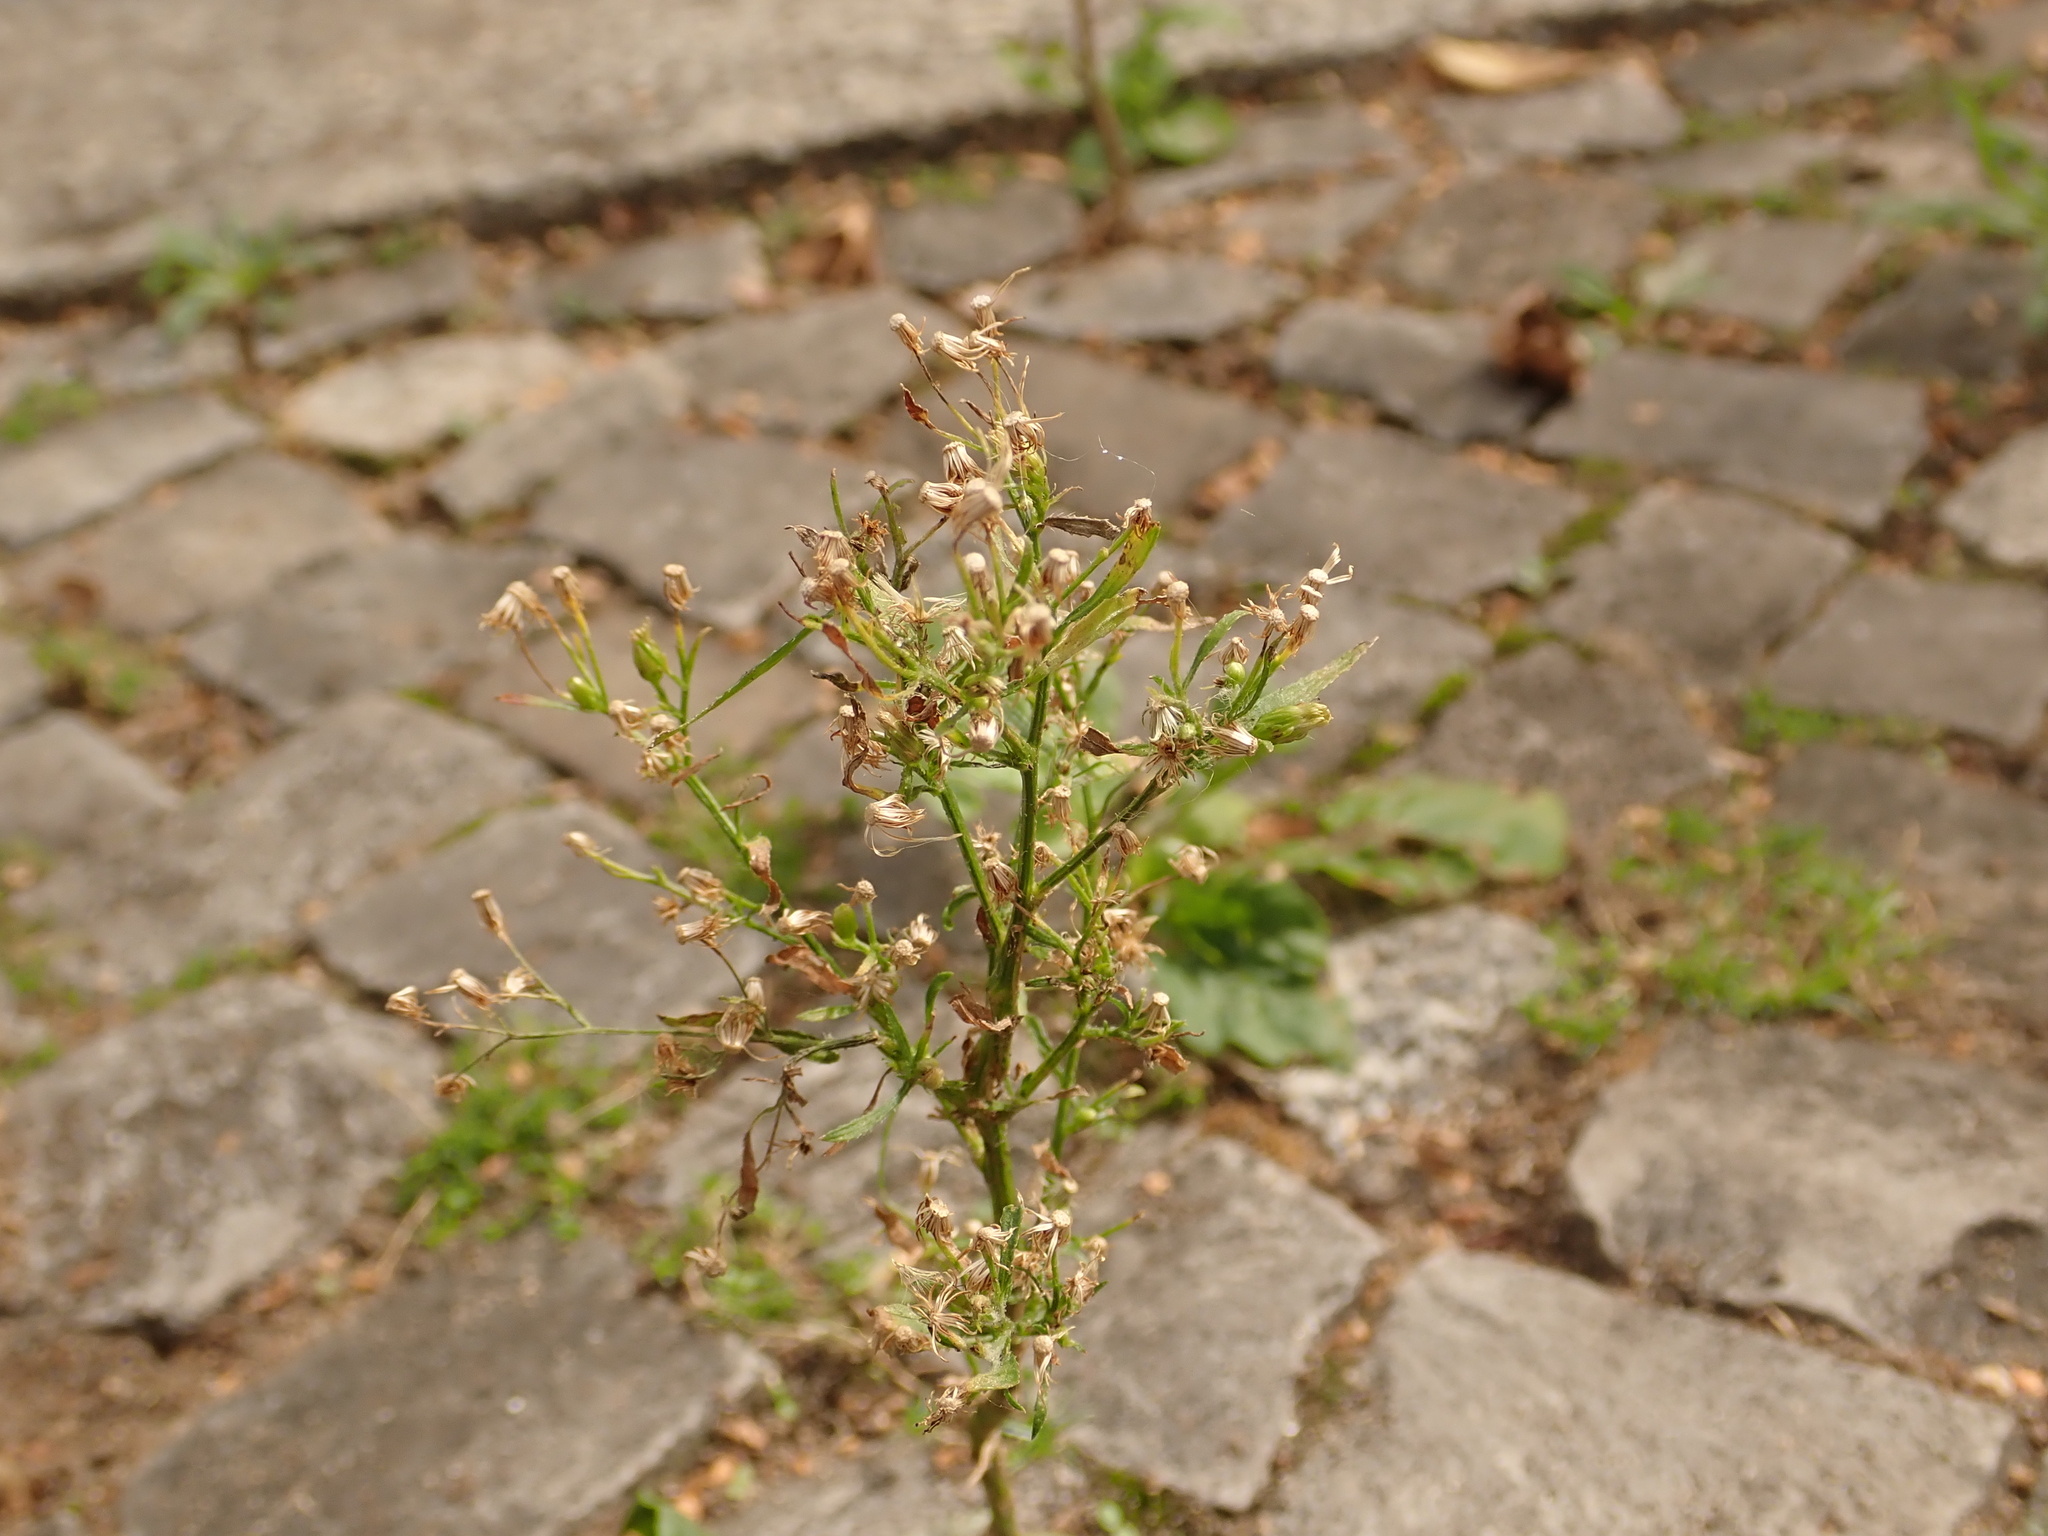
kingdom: Plantae
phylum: Tracheophyta
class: Magnoliopsida
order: Asterales
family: Asteraceae
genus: Erigeron
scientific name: Erigeron canadensis
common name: Canadian fleabane
